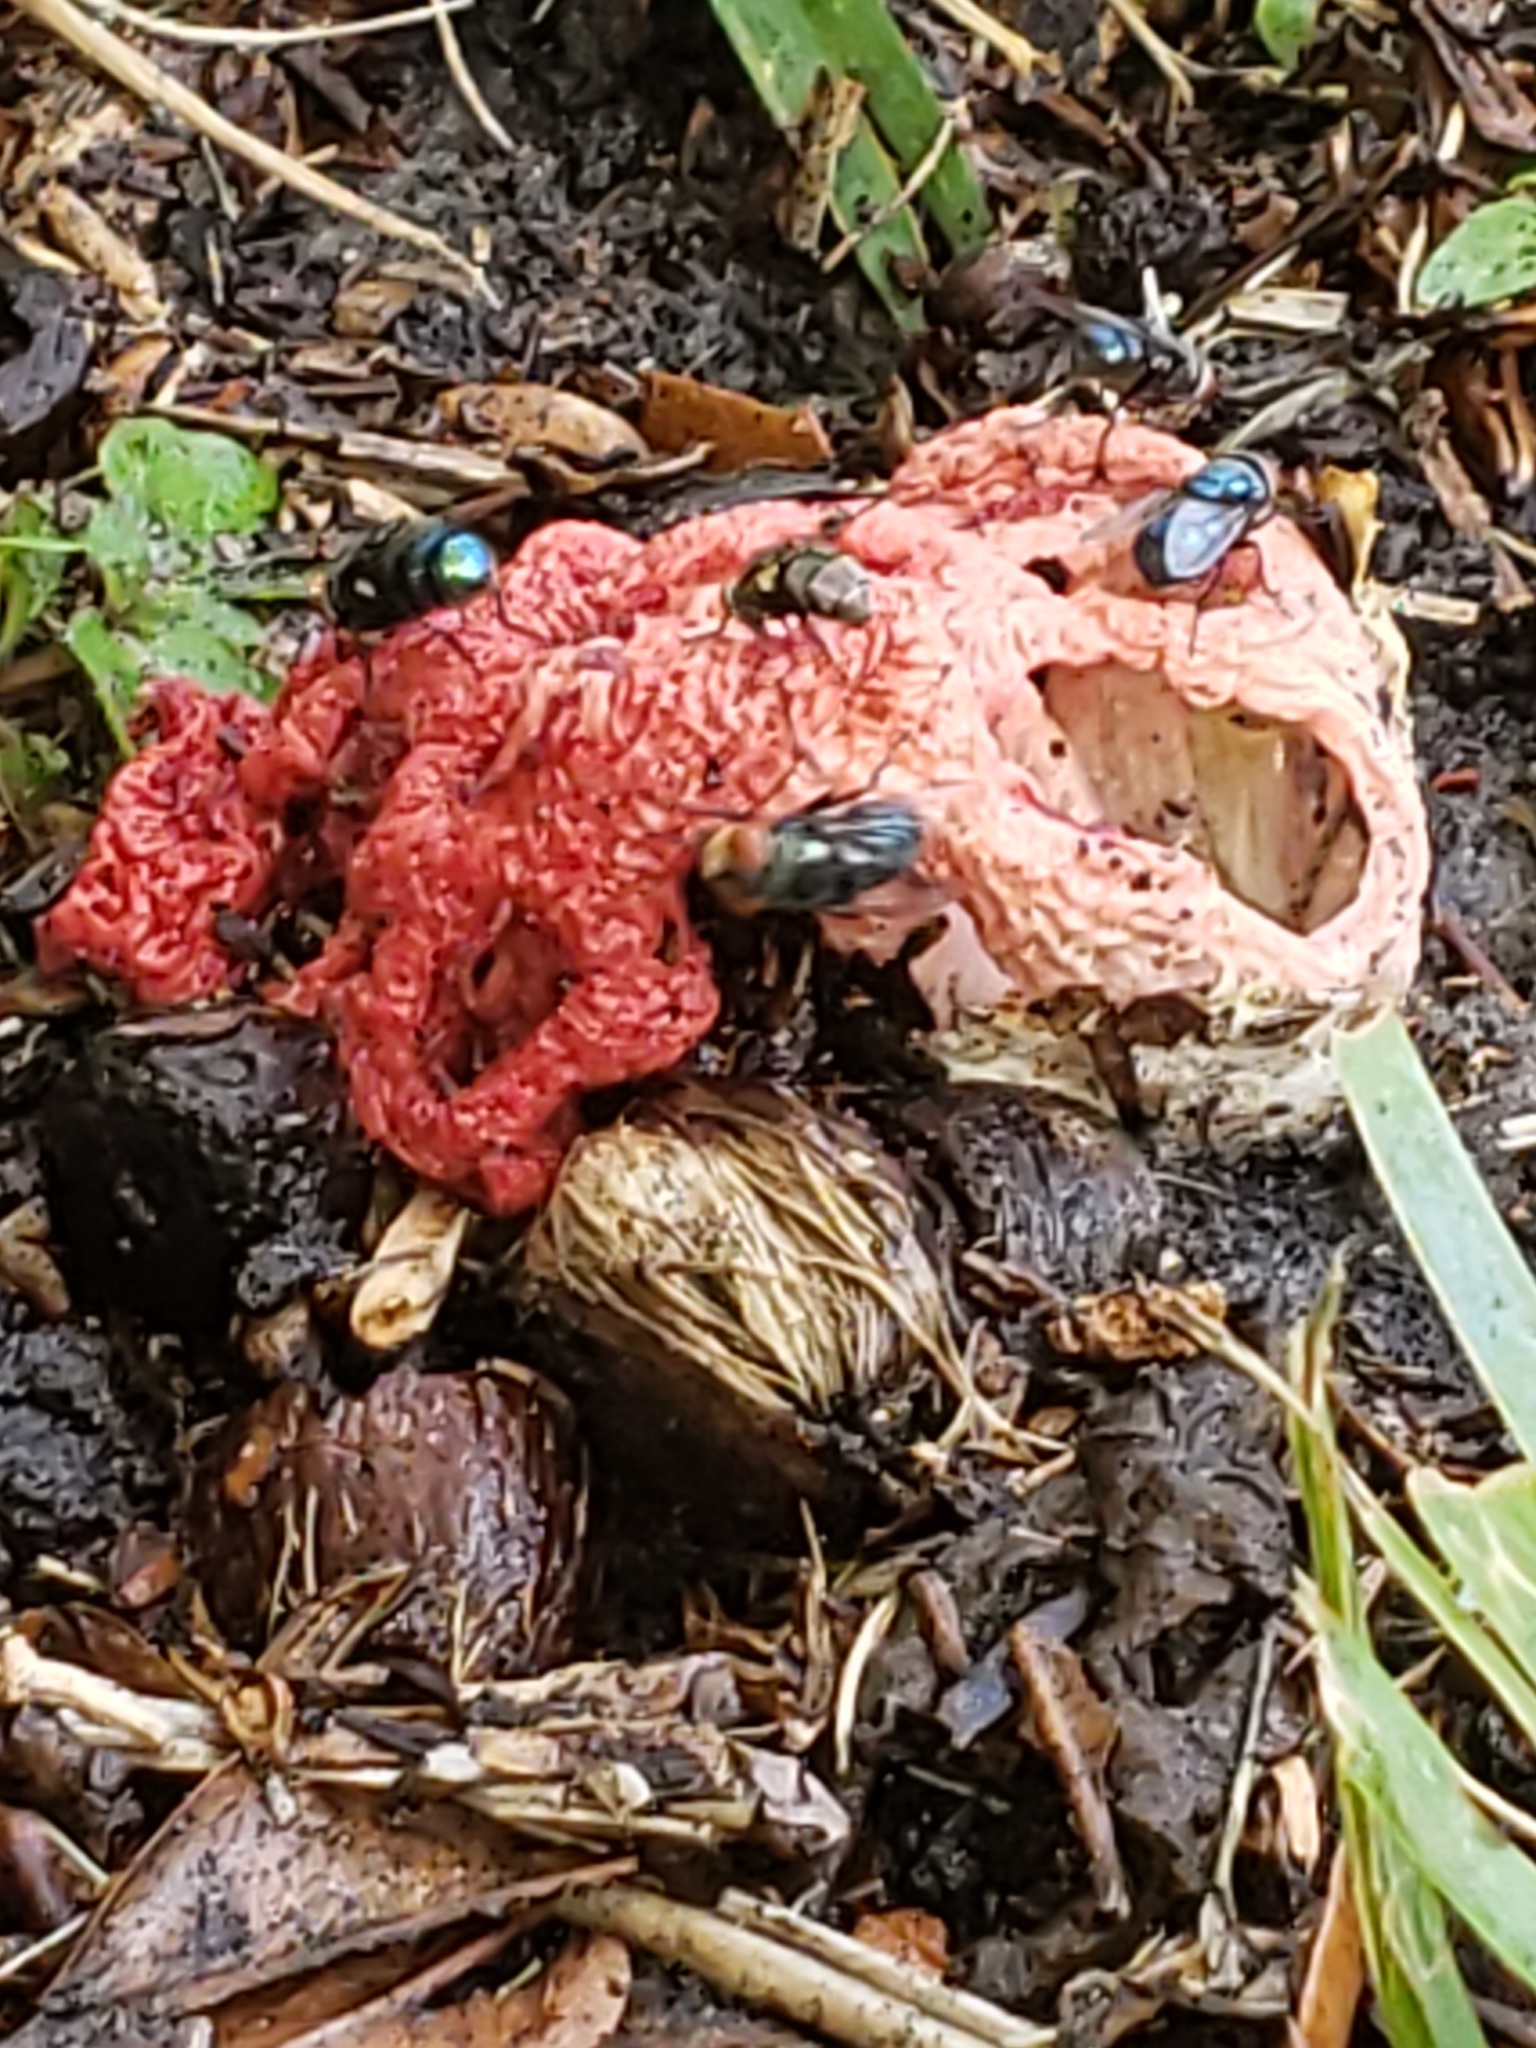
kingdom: Fungi
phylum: Basidiomycota
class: Agaricomycetes
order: Phallales
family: Phallaceae
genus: Clathrus
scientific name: Clathrus crispatus
